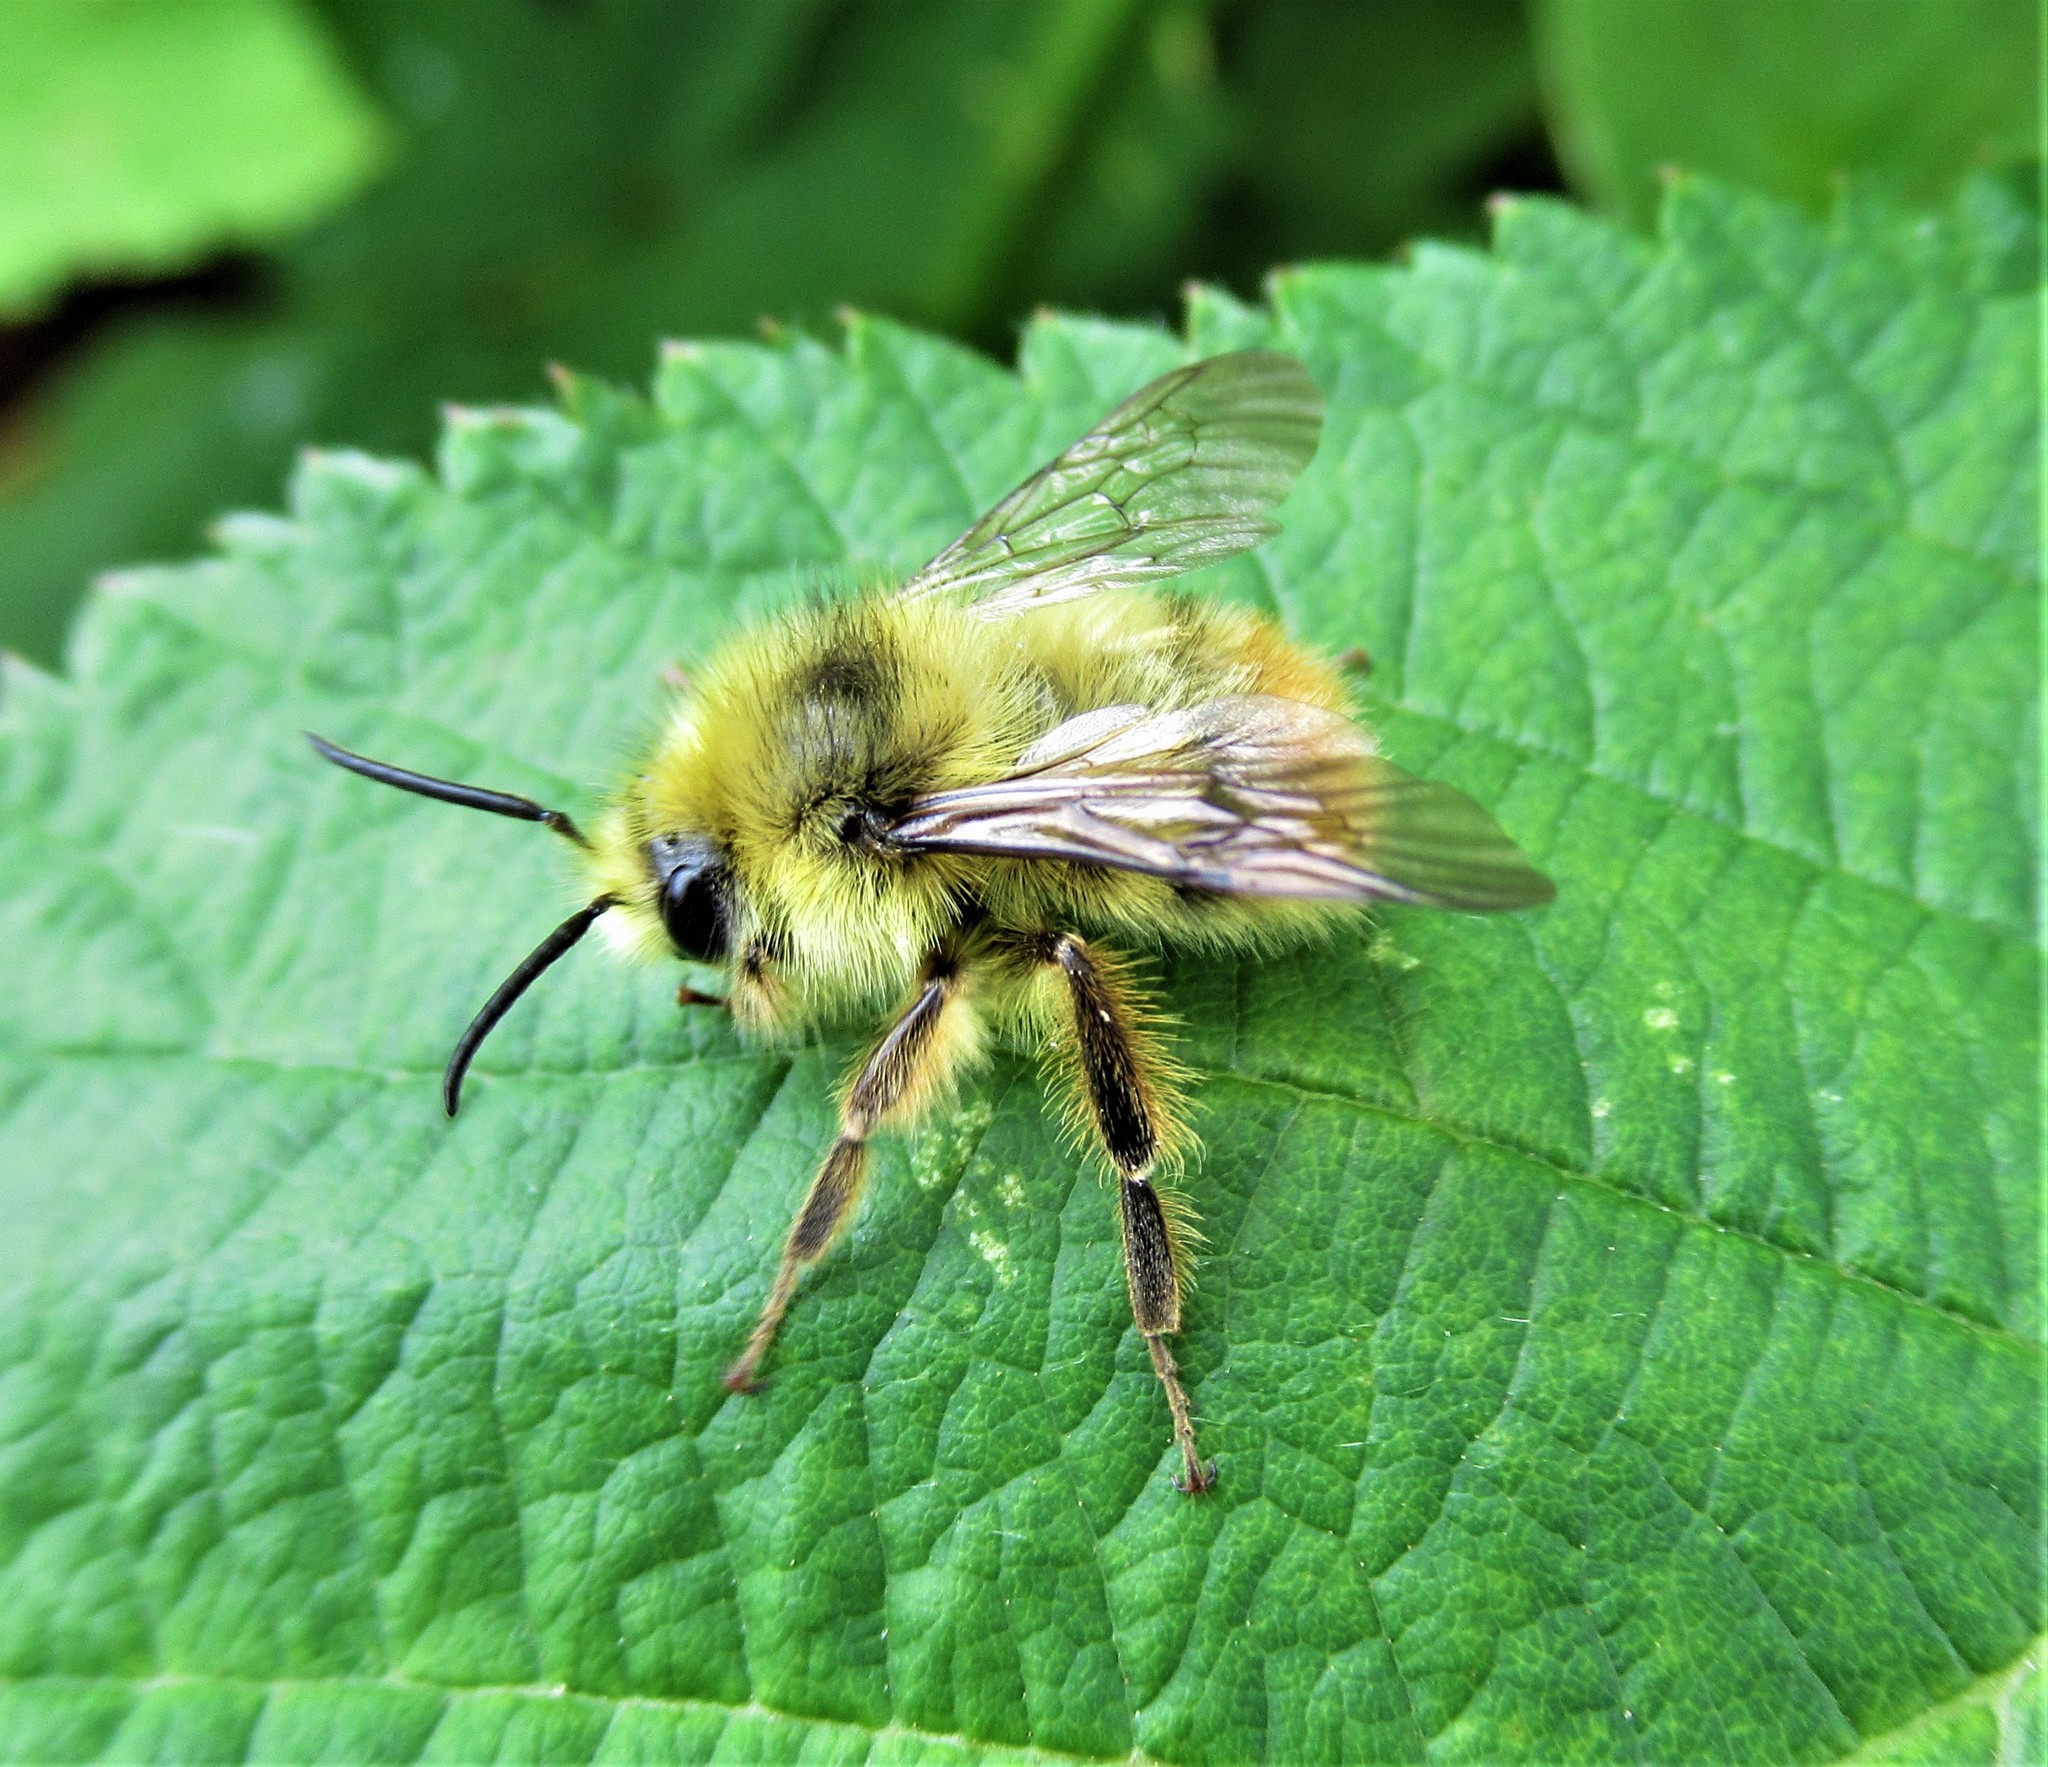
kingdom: Animalia
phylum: Arthropoda
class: Insecta
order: Hymenoptera
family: Apidae
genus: Bombus
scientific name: Bombus mixtus
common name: Fuzzy-horned bumble bee
